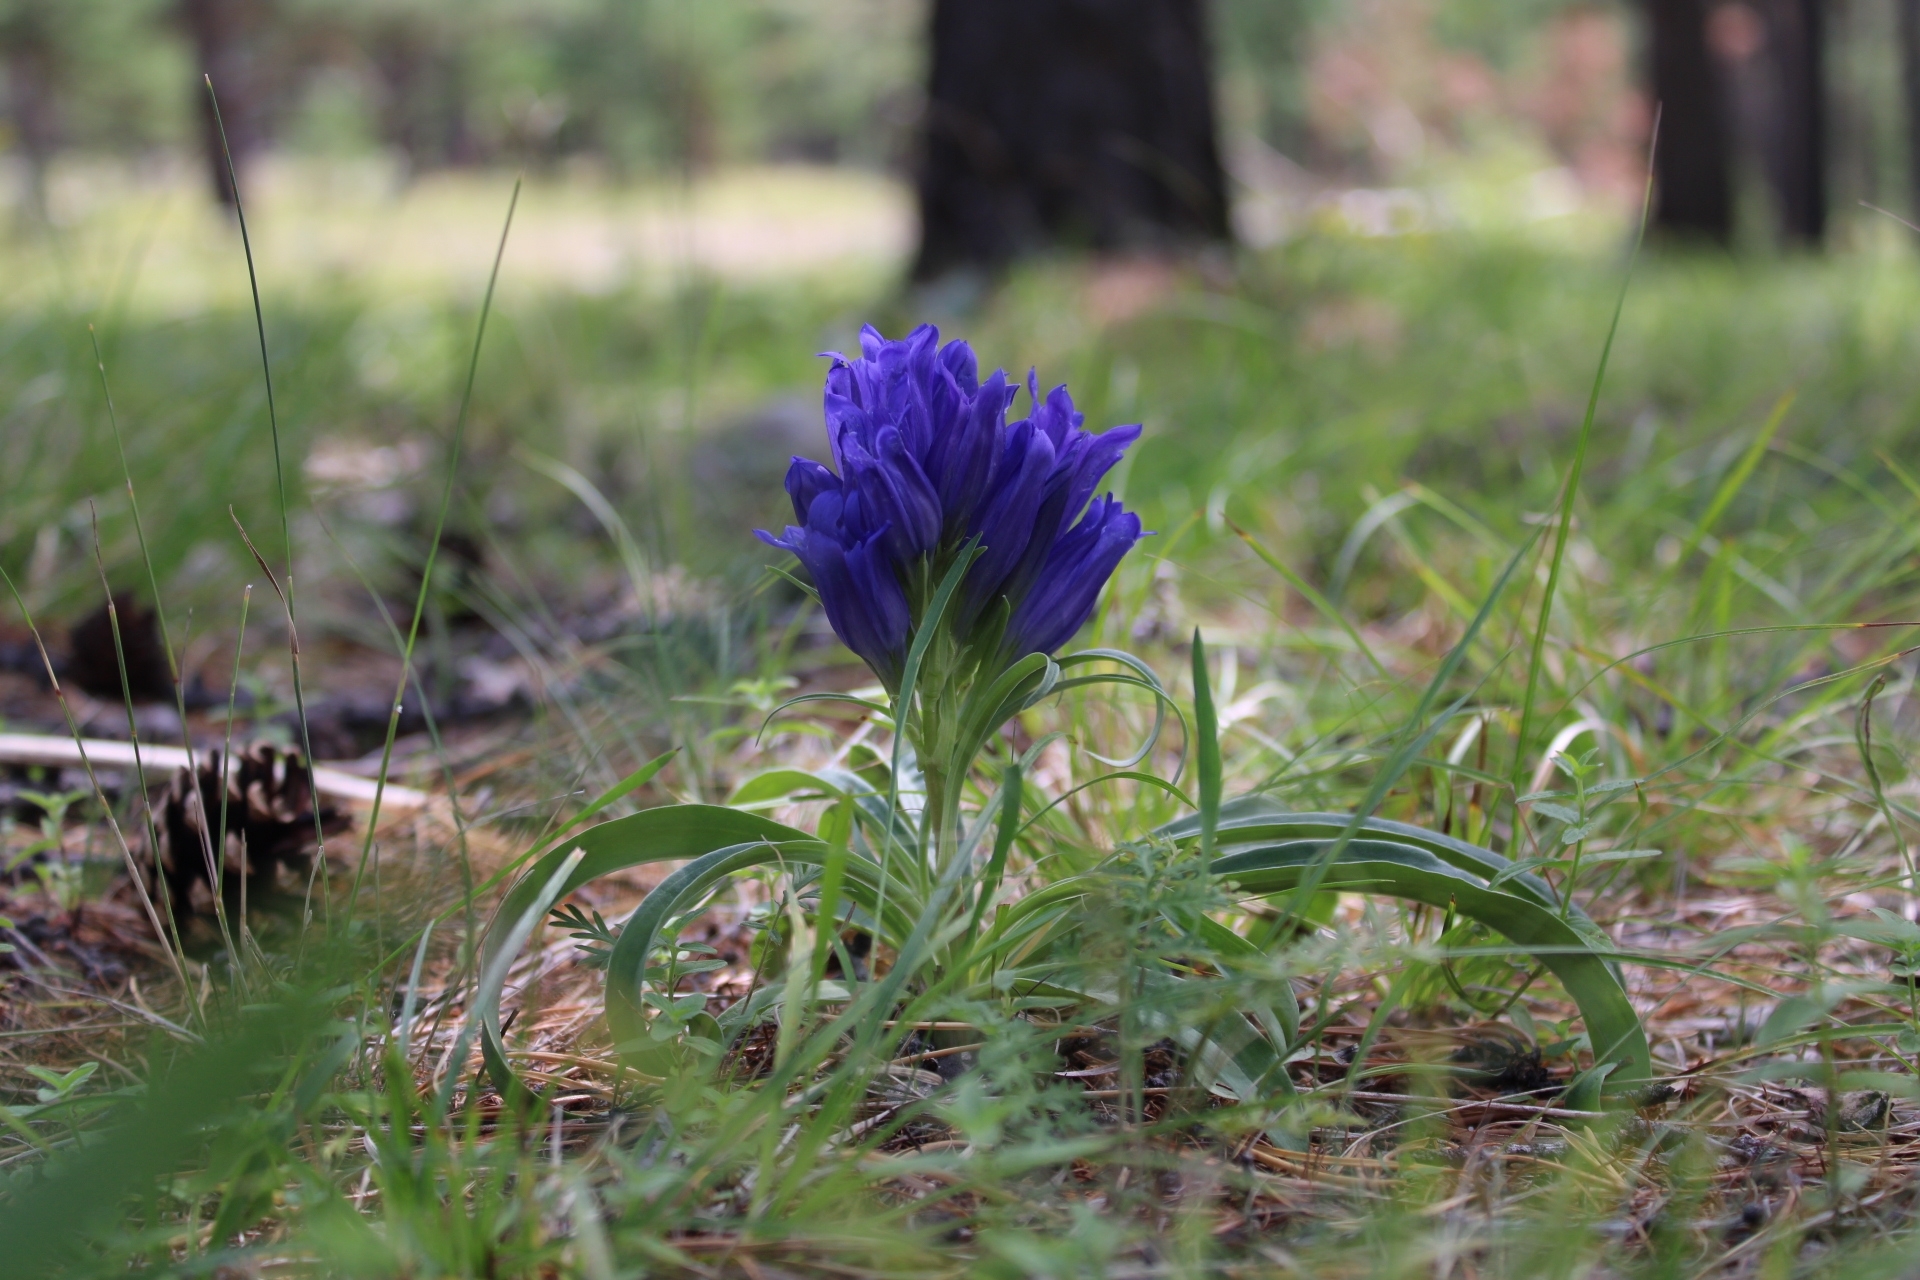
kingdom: Plantae
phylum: Tracheophyta
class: Magnoliopsida
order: Gentianales
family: Gentianaceae
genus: Gentiana
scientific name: Gentiana decumbens
